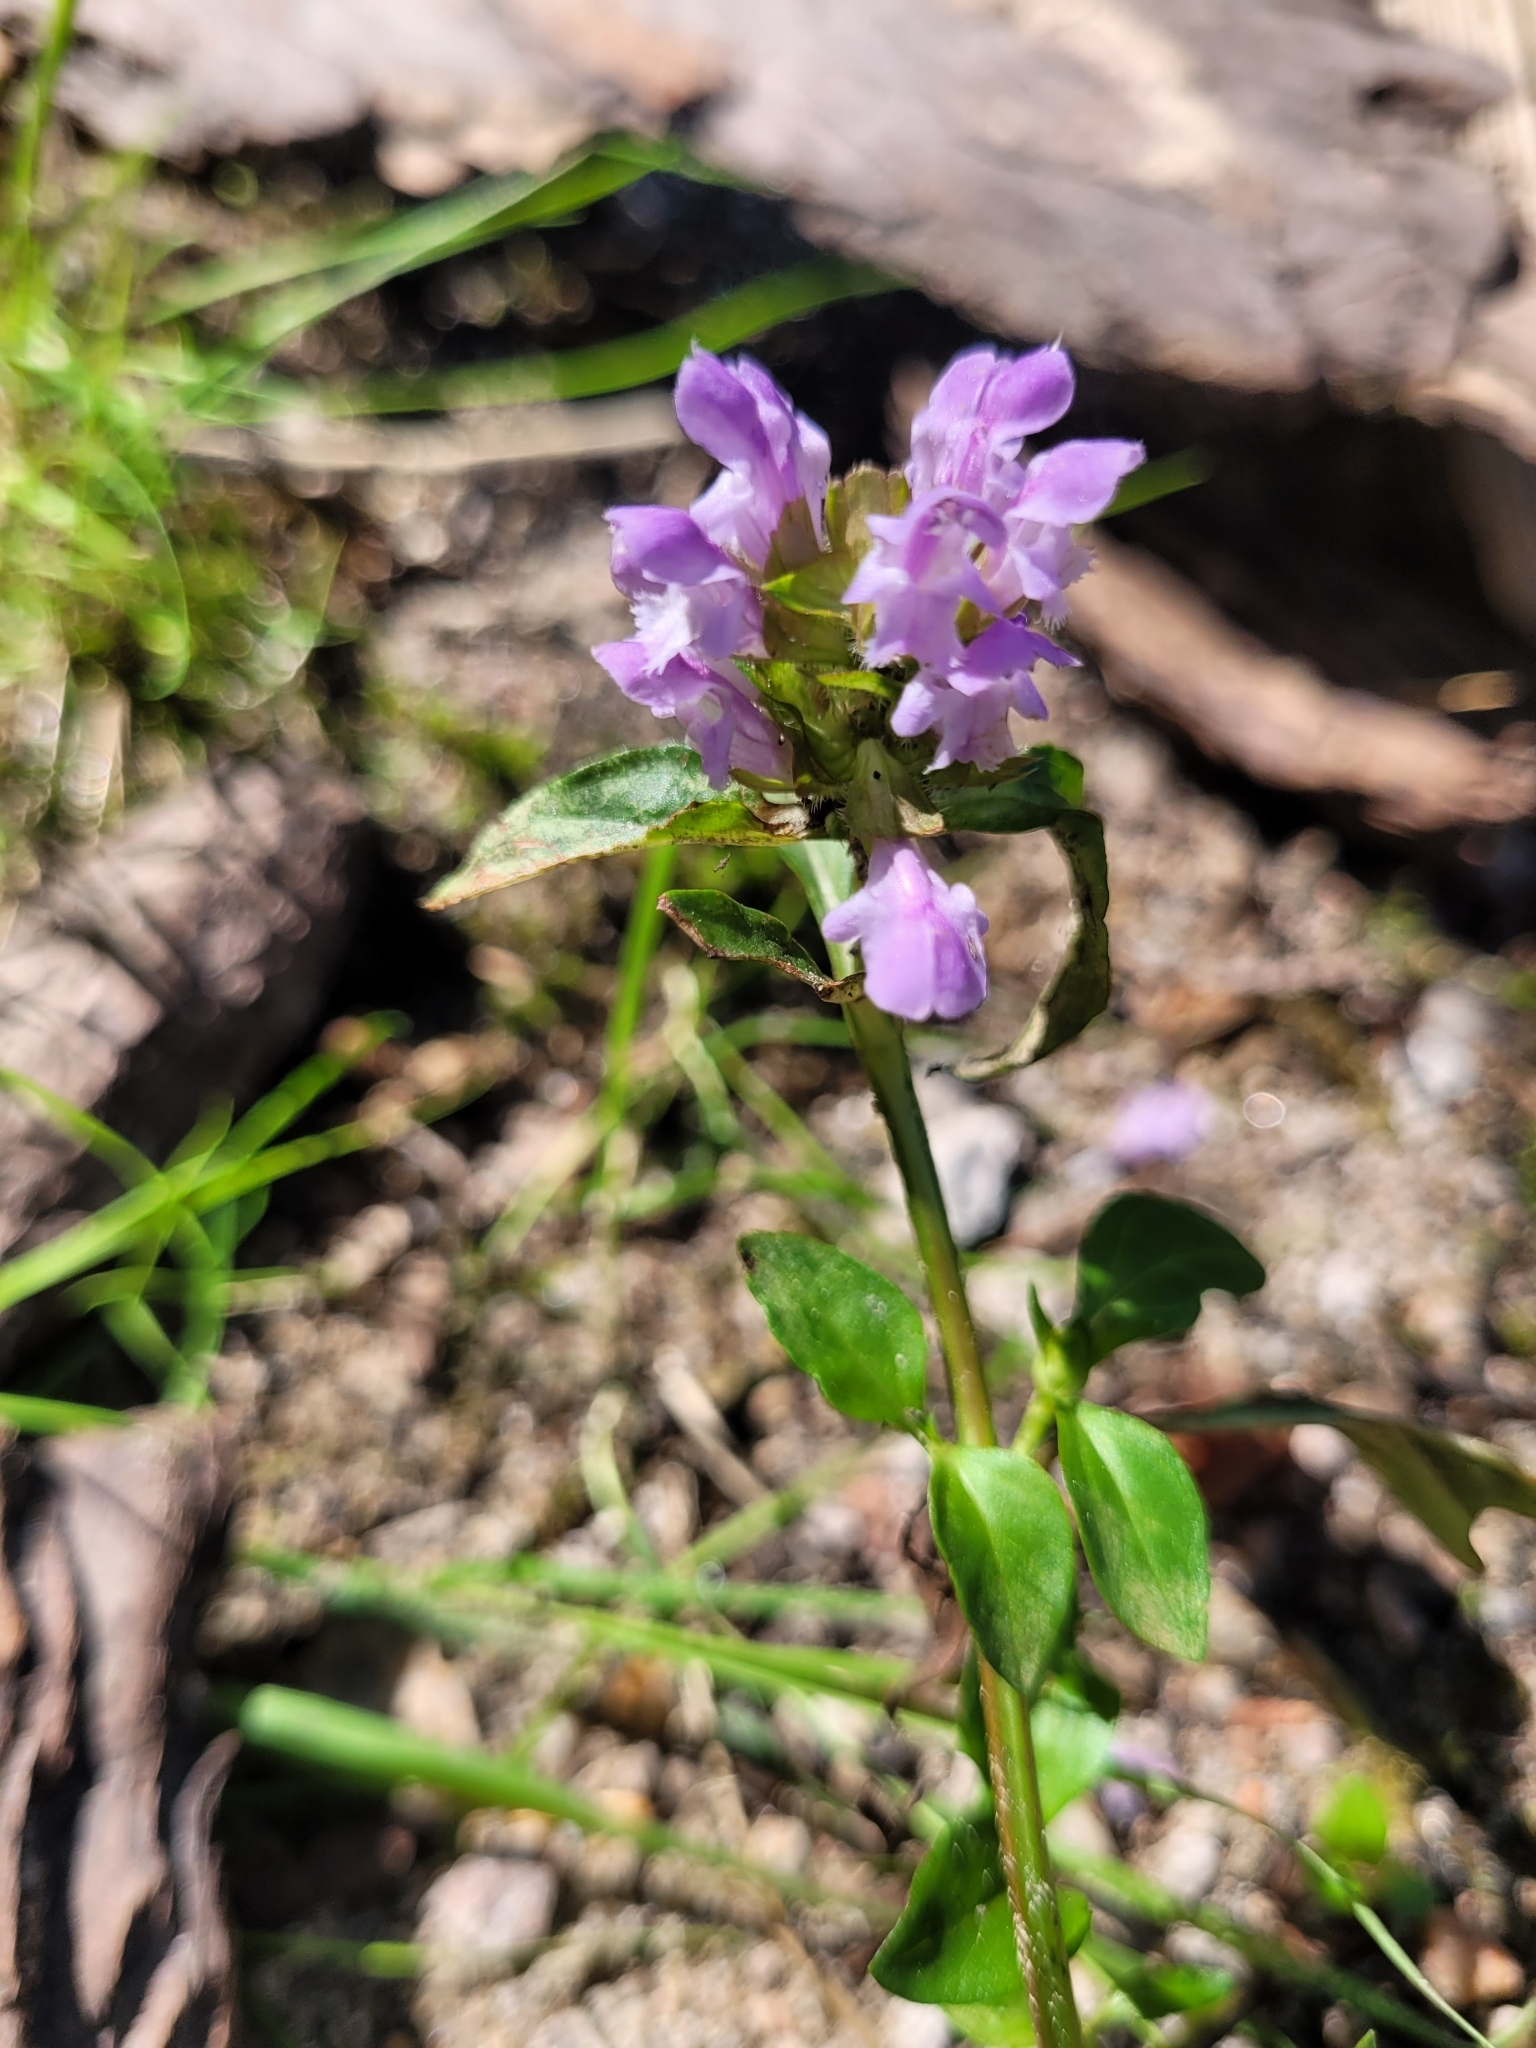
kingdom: Plantae
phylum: Tracheophyta
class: Magnoliopsida
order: Lamiales
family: Lamiaceae
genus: Prunella
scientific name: Prunella vulgaris
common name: Heal-all
